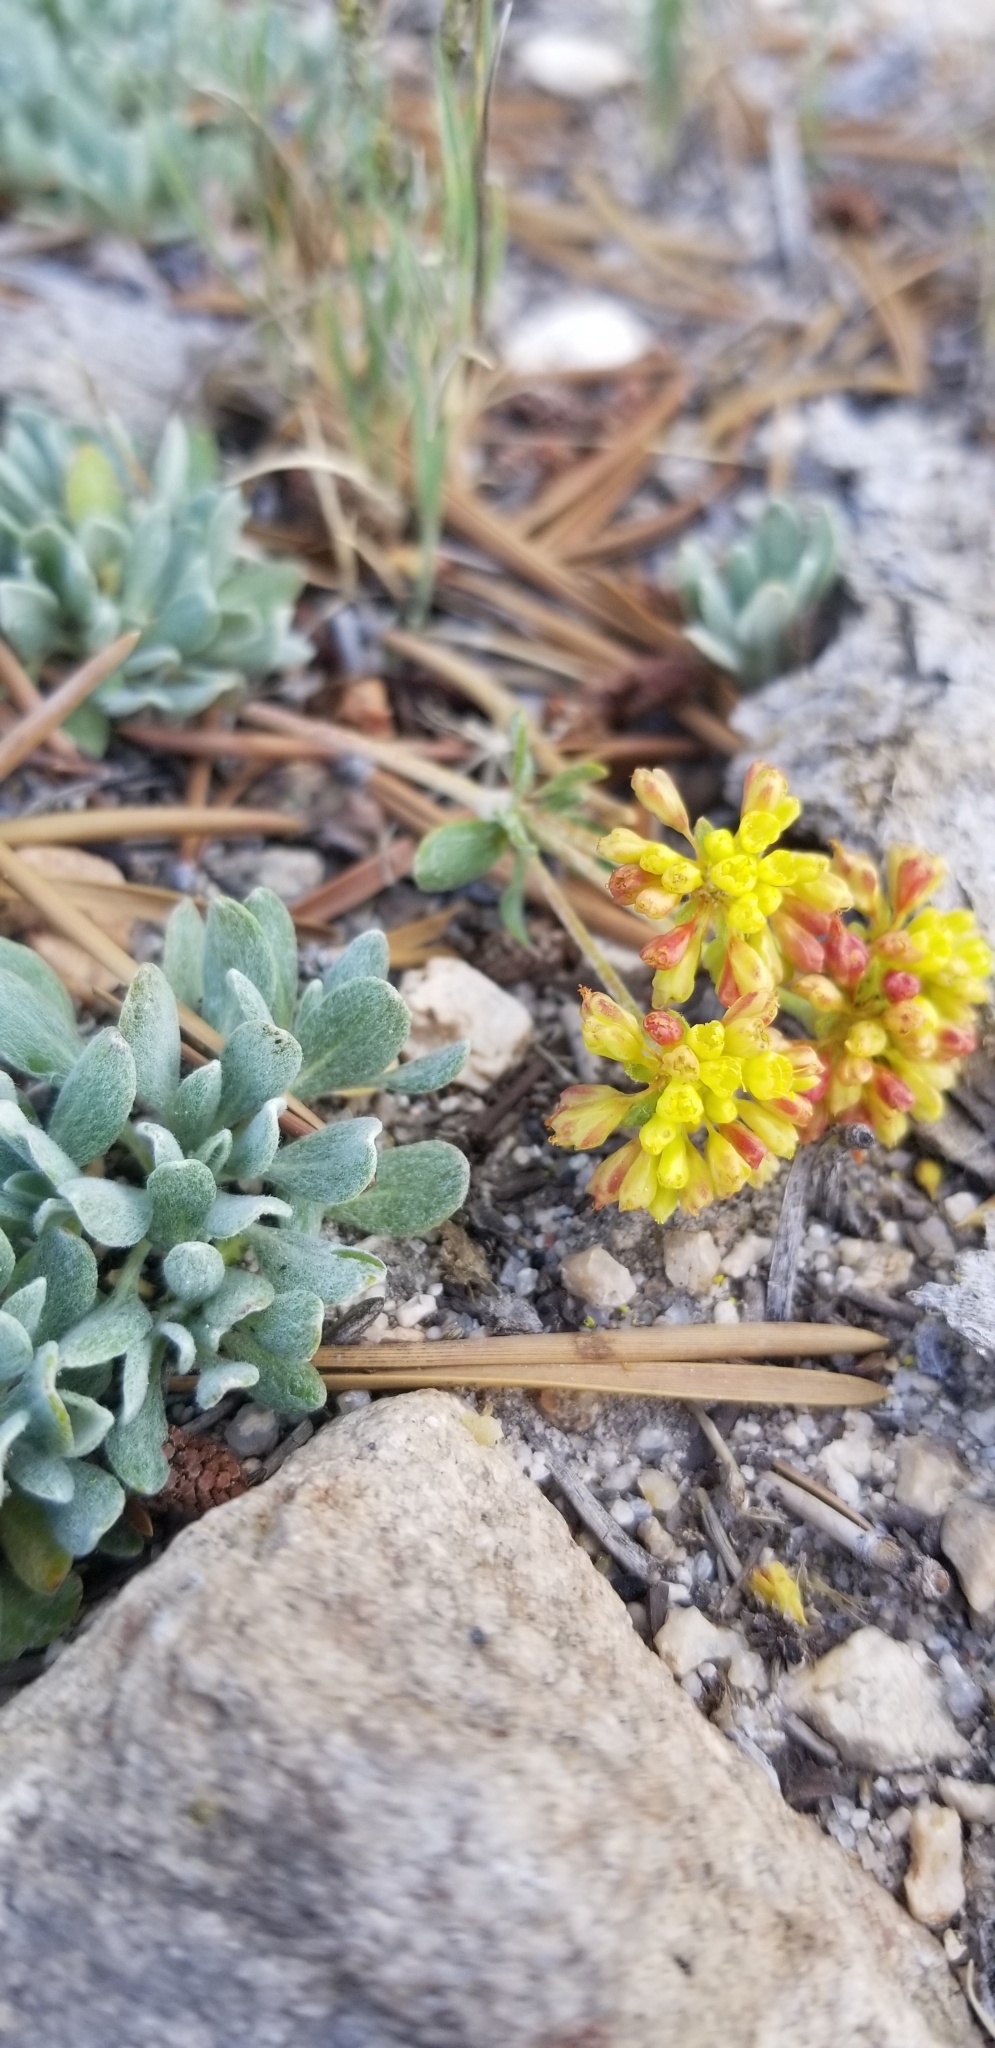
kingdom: Plantae
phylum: Tracheophyta
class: Magnoliopsida
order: Caryophyllales
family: Polygonaceae
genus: Eriogonum
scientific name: Eriogonum umbellatum
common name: Sulfur-buckwheat
